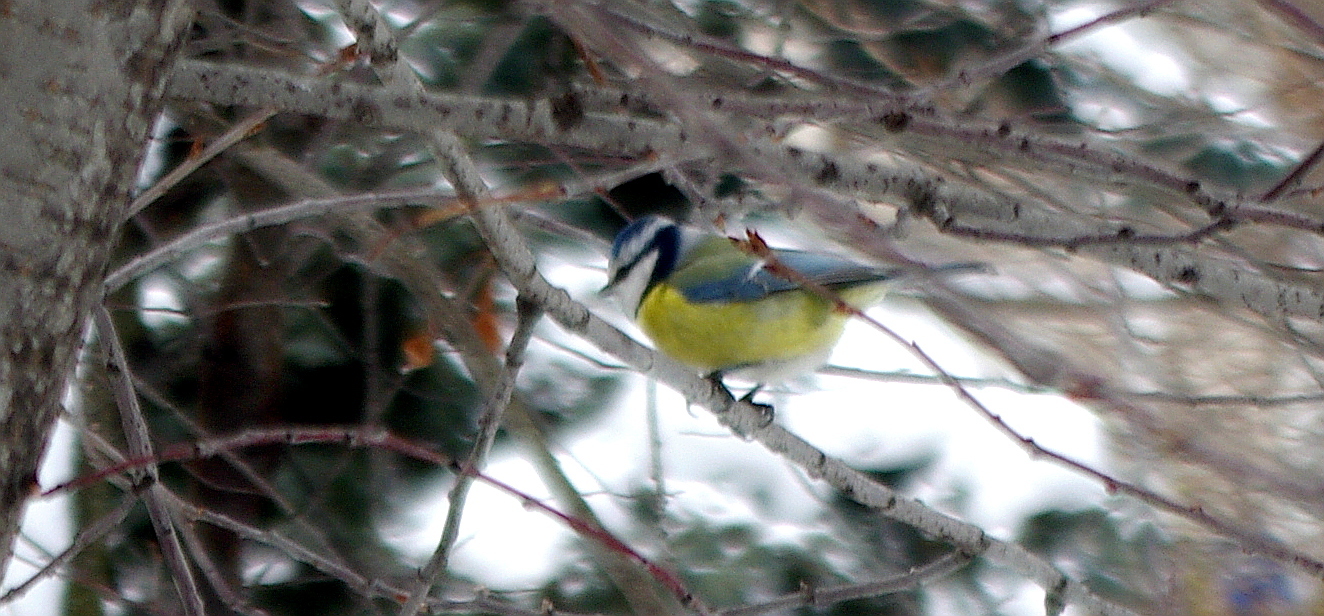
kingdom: Animalia
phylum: Chordata
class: Aves
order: Passeriformes
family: Paridae
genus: Cyanistes
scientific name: Cyanistes caeruleus
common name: Eurasian blue tit
